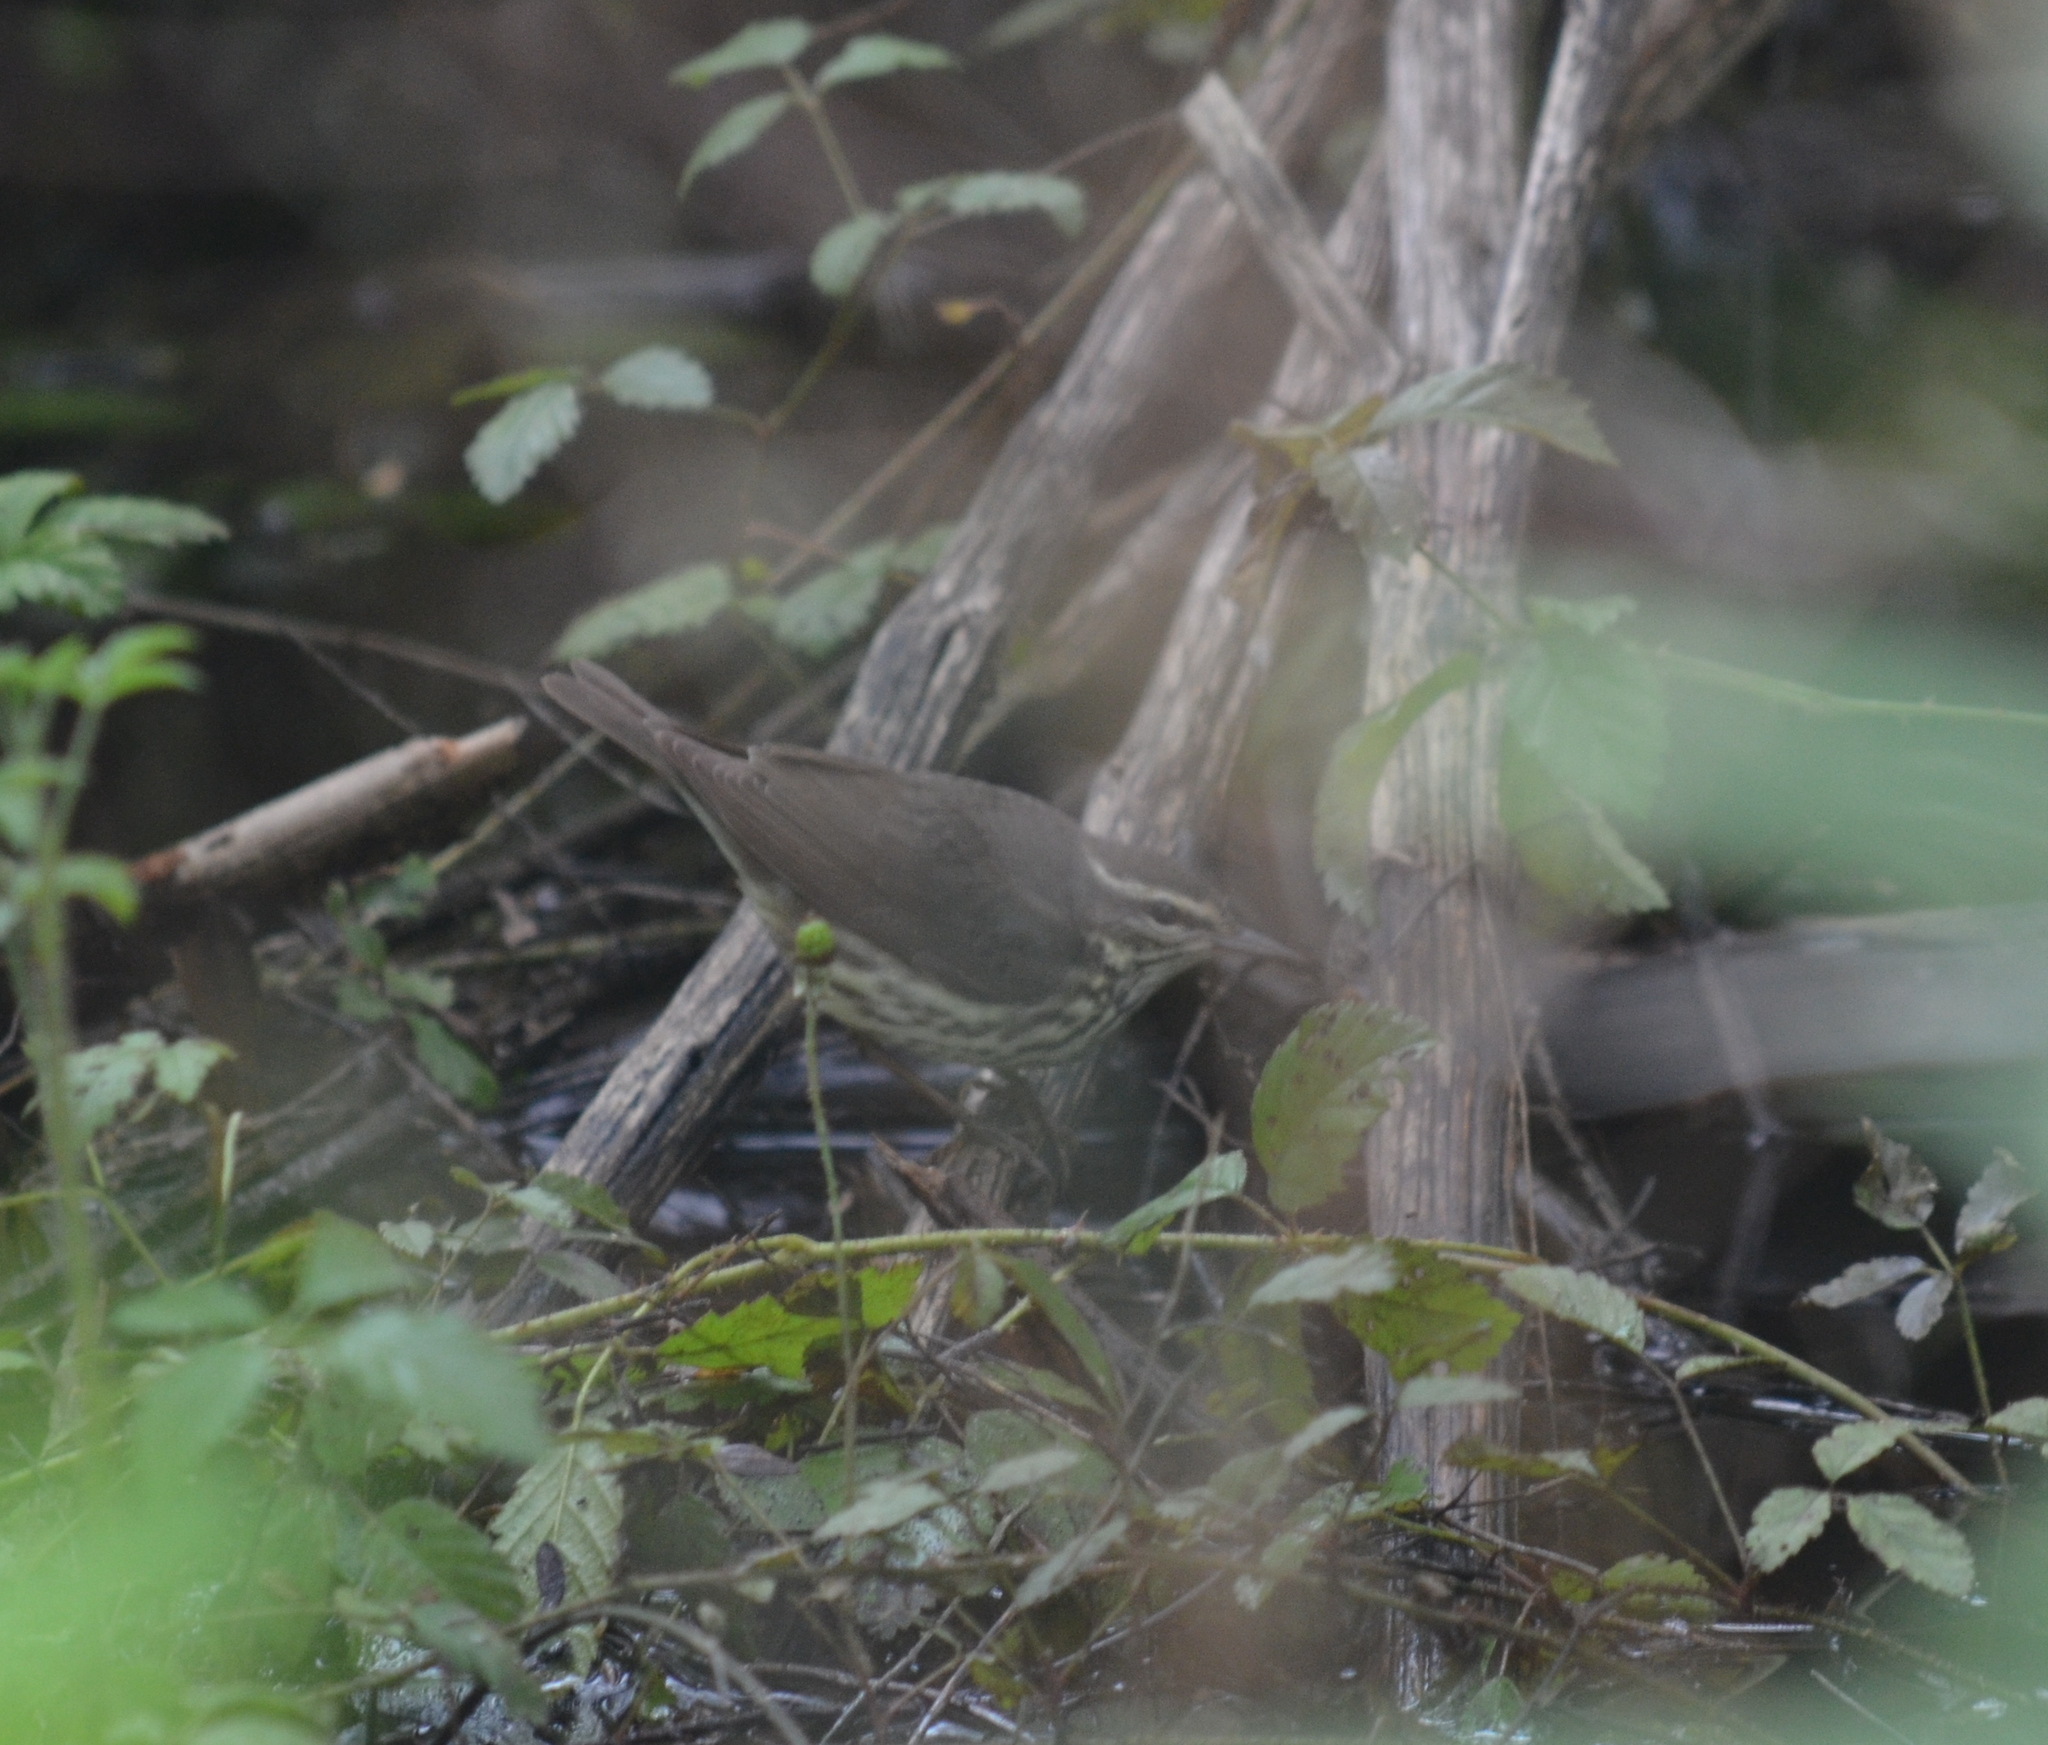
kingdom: Animalia
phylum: Chordata
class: Aves
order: Passeriformes
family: Parulidae
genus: Parkesia
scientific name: Parkesia noveboracensis
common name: Northern waterthrush
